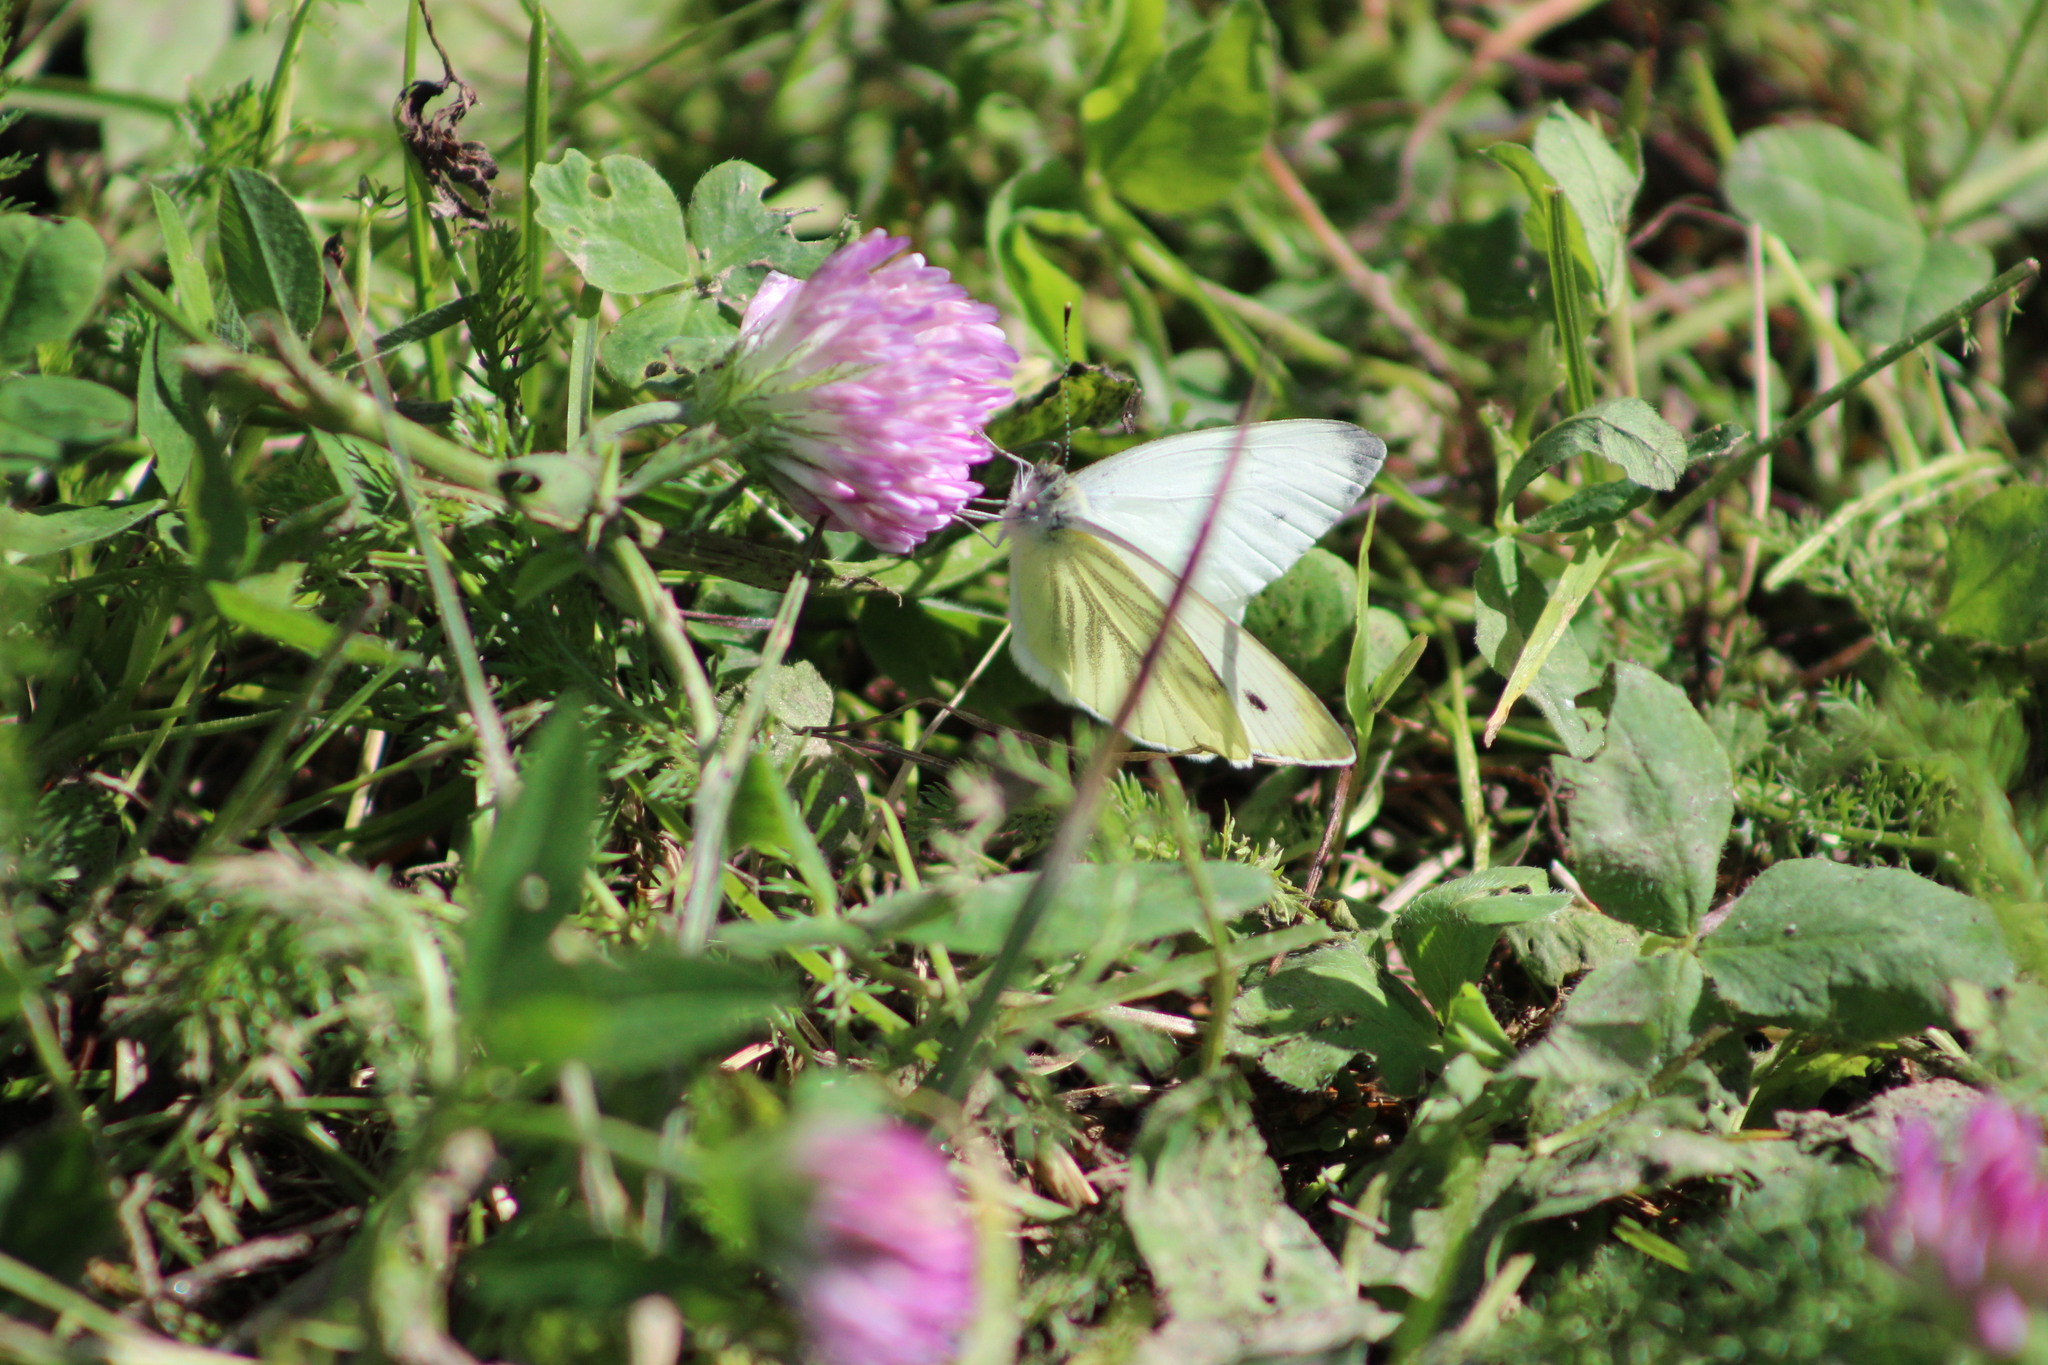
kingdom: Animalia
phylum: Arthropoda
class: Insecta
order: Lepidoptera
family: Pieridae
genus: Pieris
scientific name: Pieris napi
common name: Green-veined white
